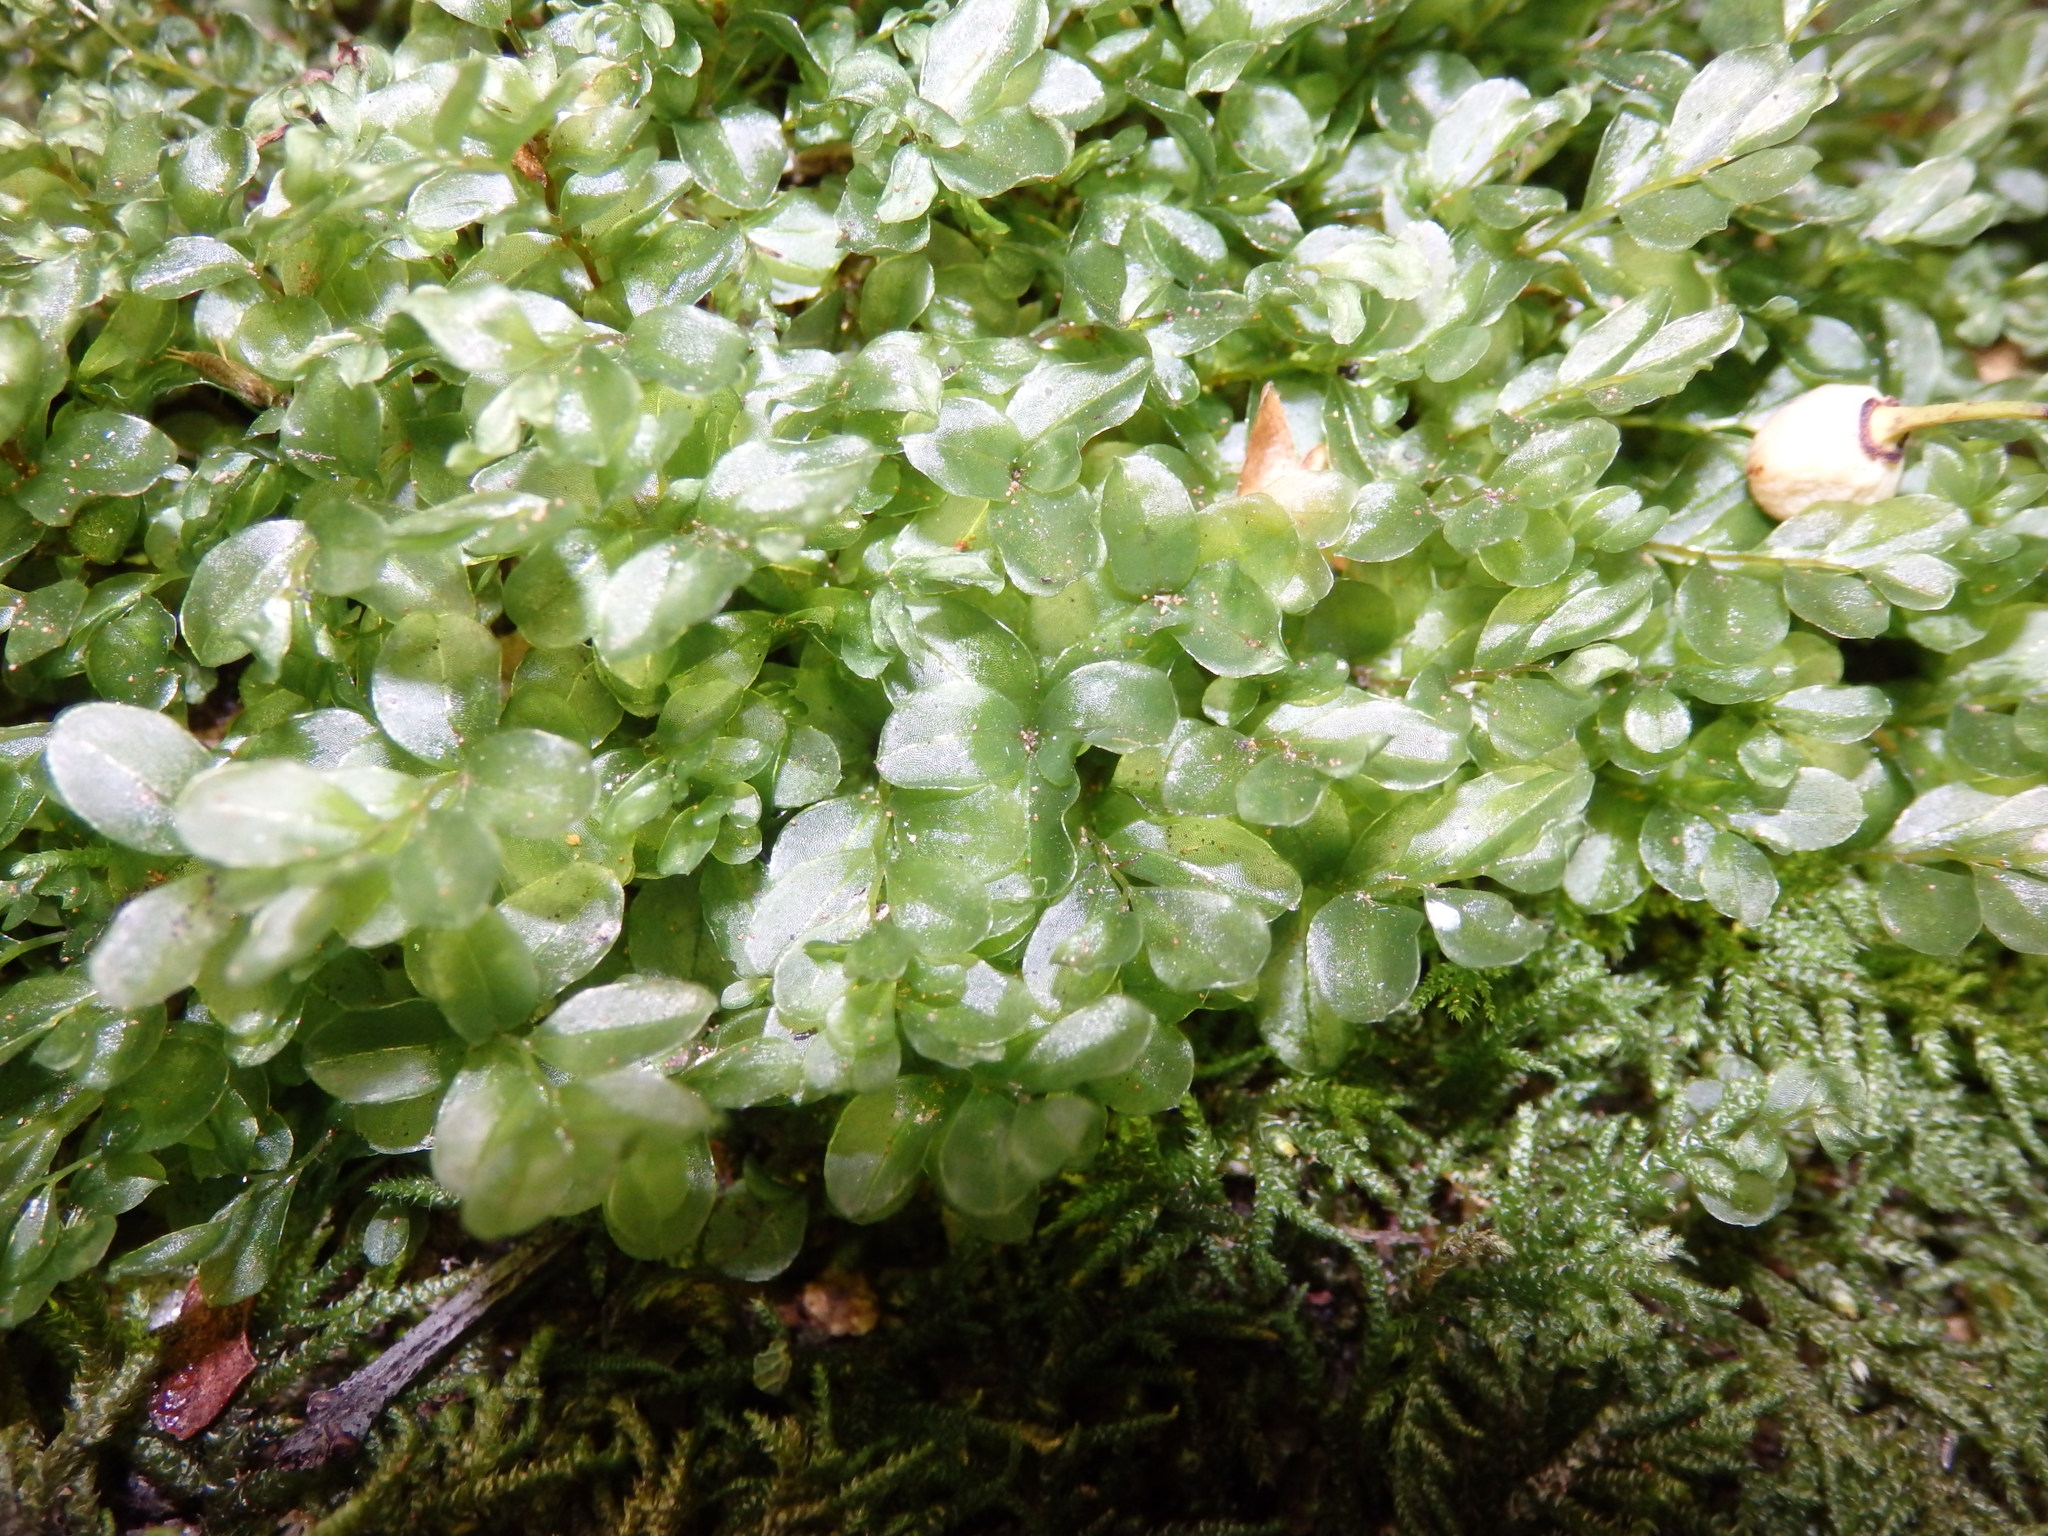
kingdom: Plantae
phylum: Bryophyta
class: Bryopsida
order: Bryales
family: Mniaceae
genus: Rhizomnium
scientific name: Rhizomnium punctatum
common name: Dotted leafy moss
